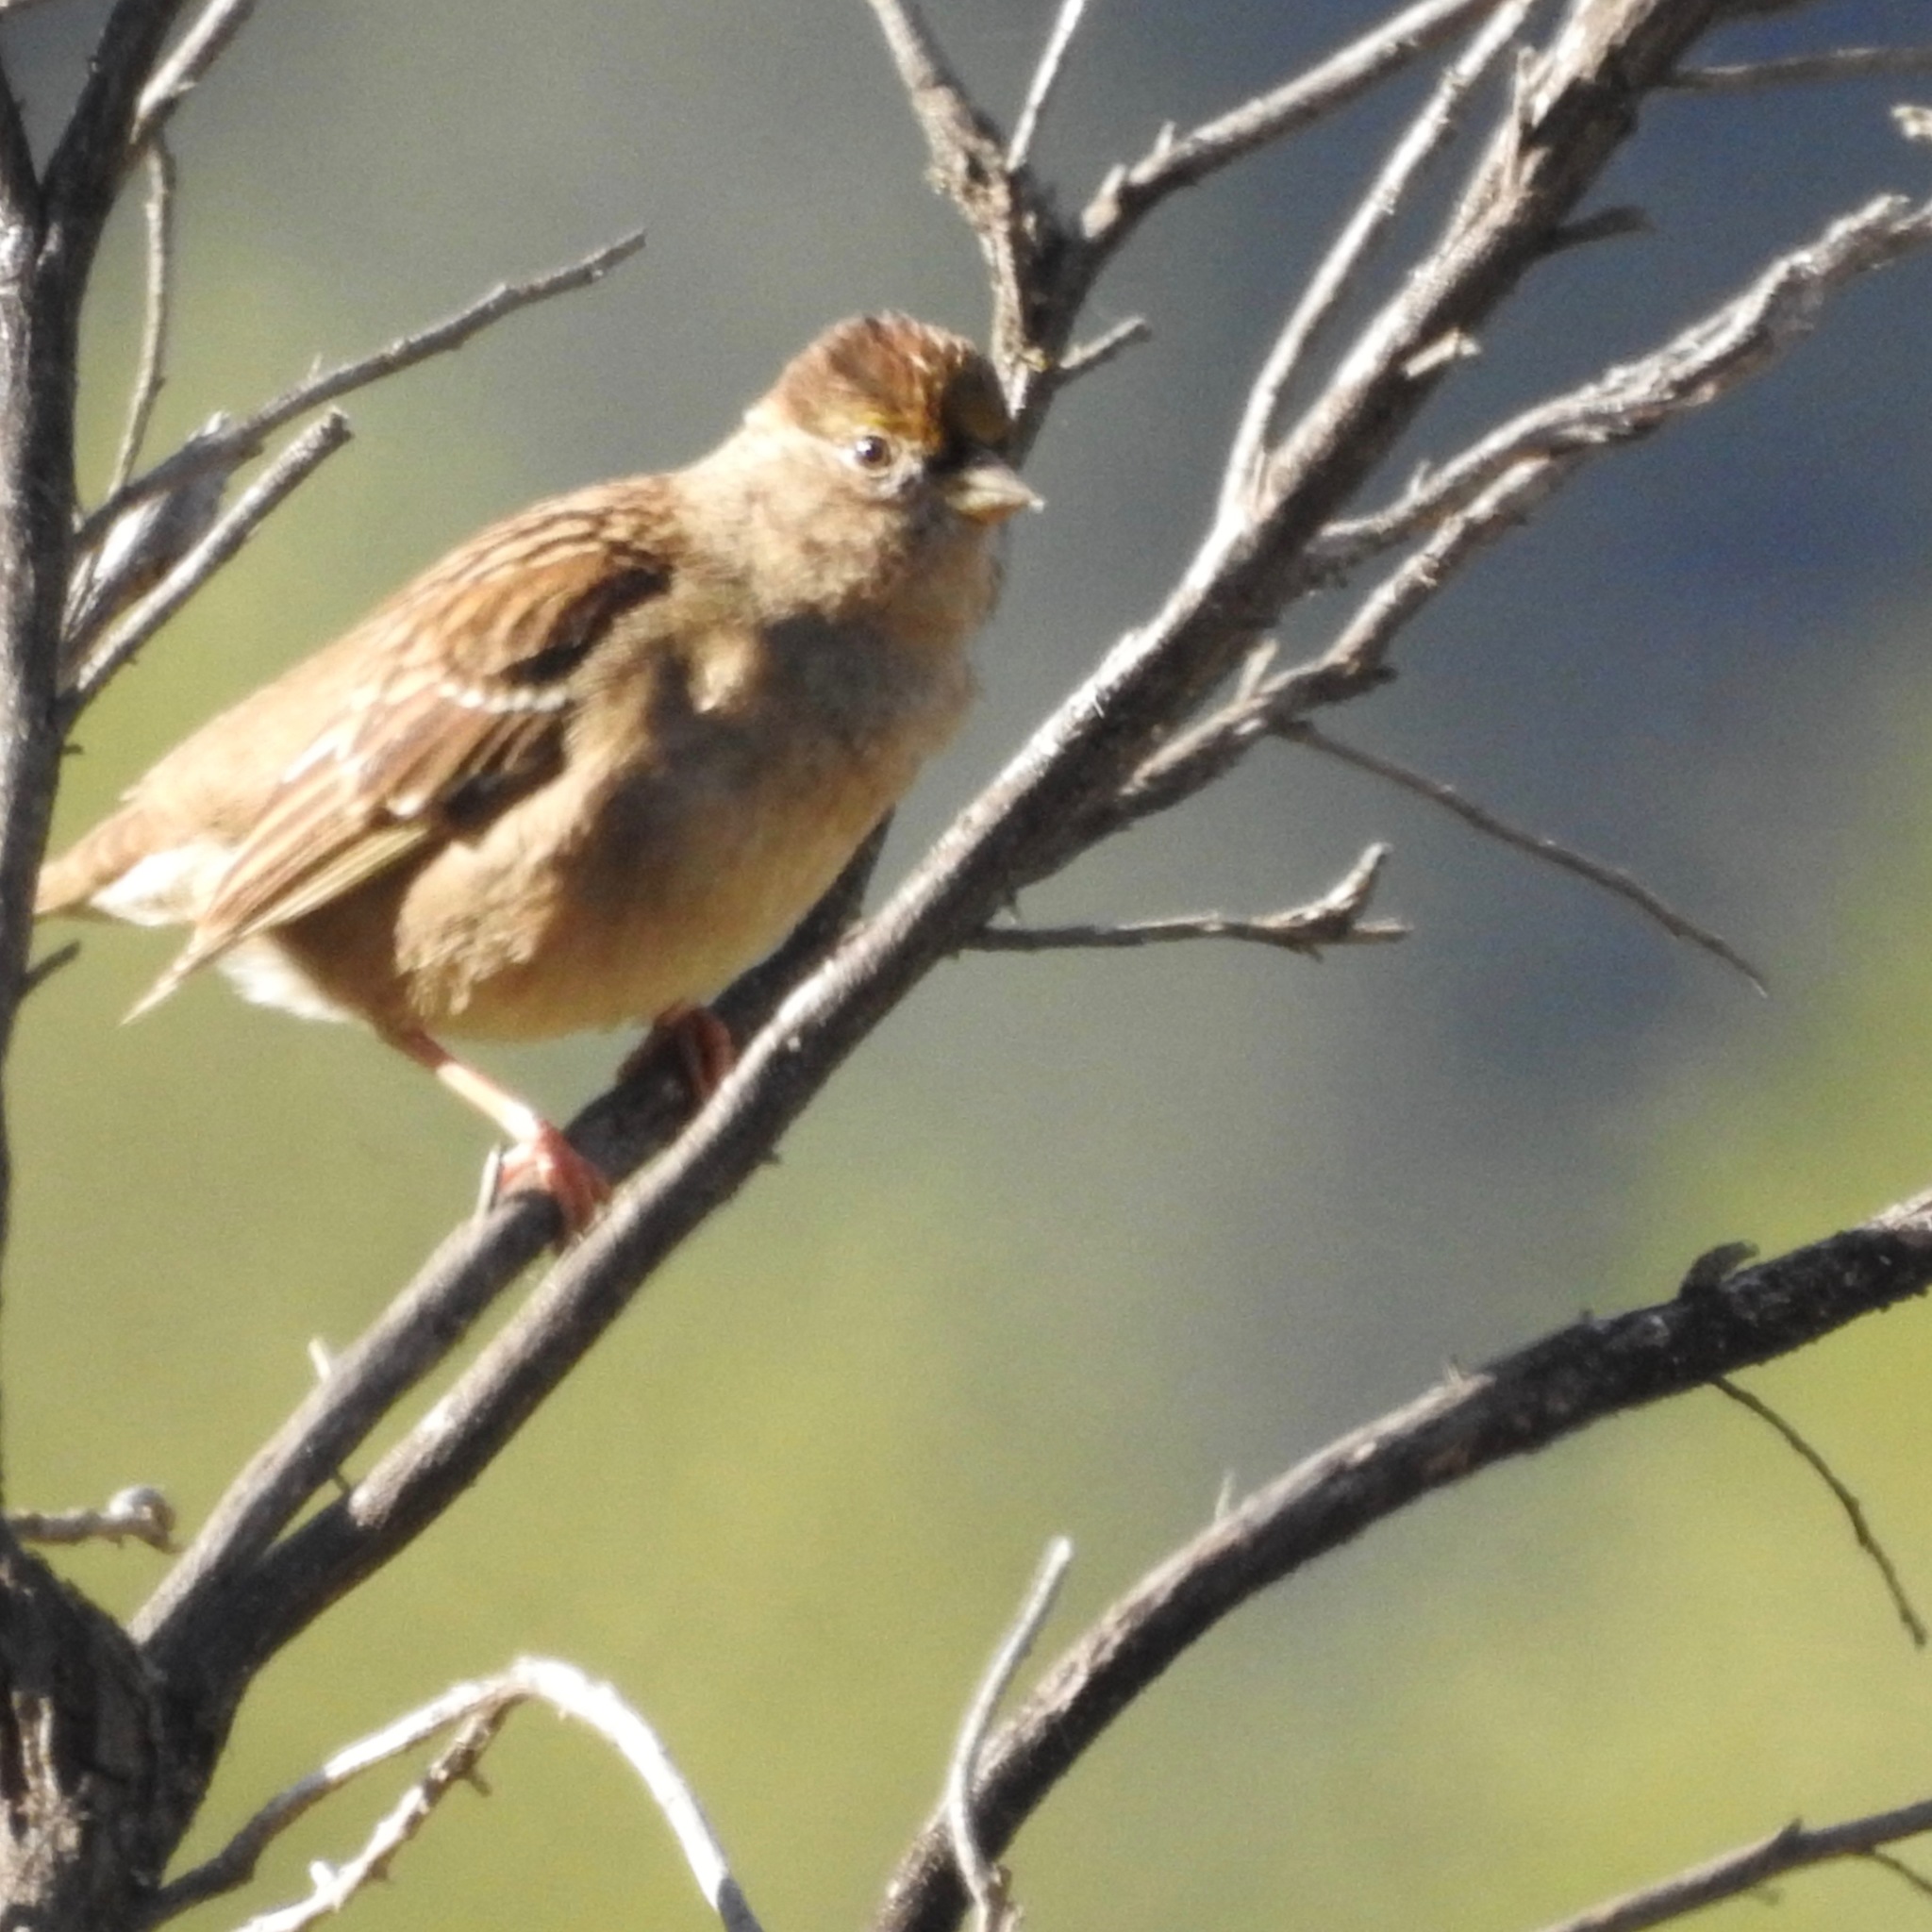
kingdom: Animalia
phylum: Chordata
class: Aves
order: Passeriformes
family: Passerellidae
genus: Zonotrichia
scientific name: Zonotrichia atricapilla
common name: Golden-crowned sparrow
